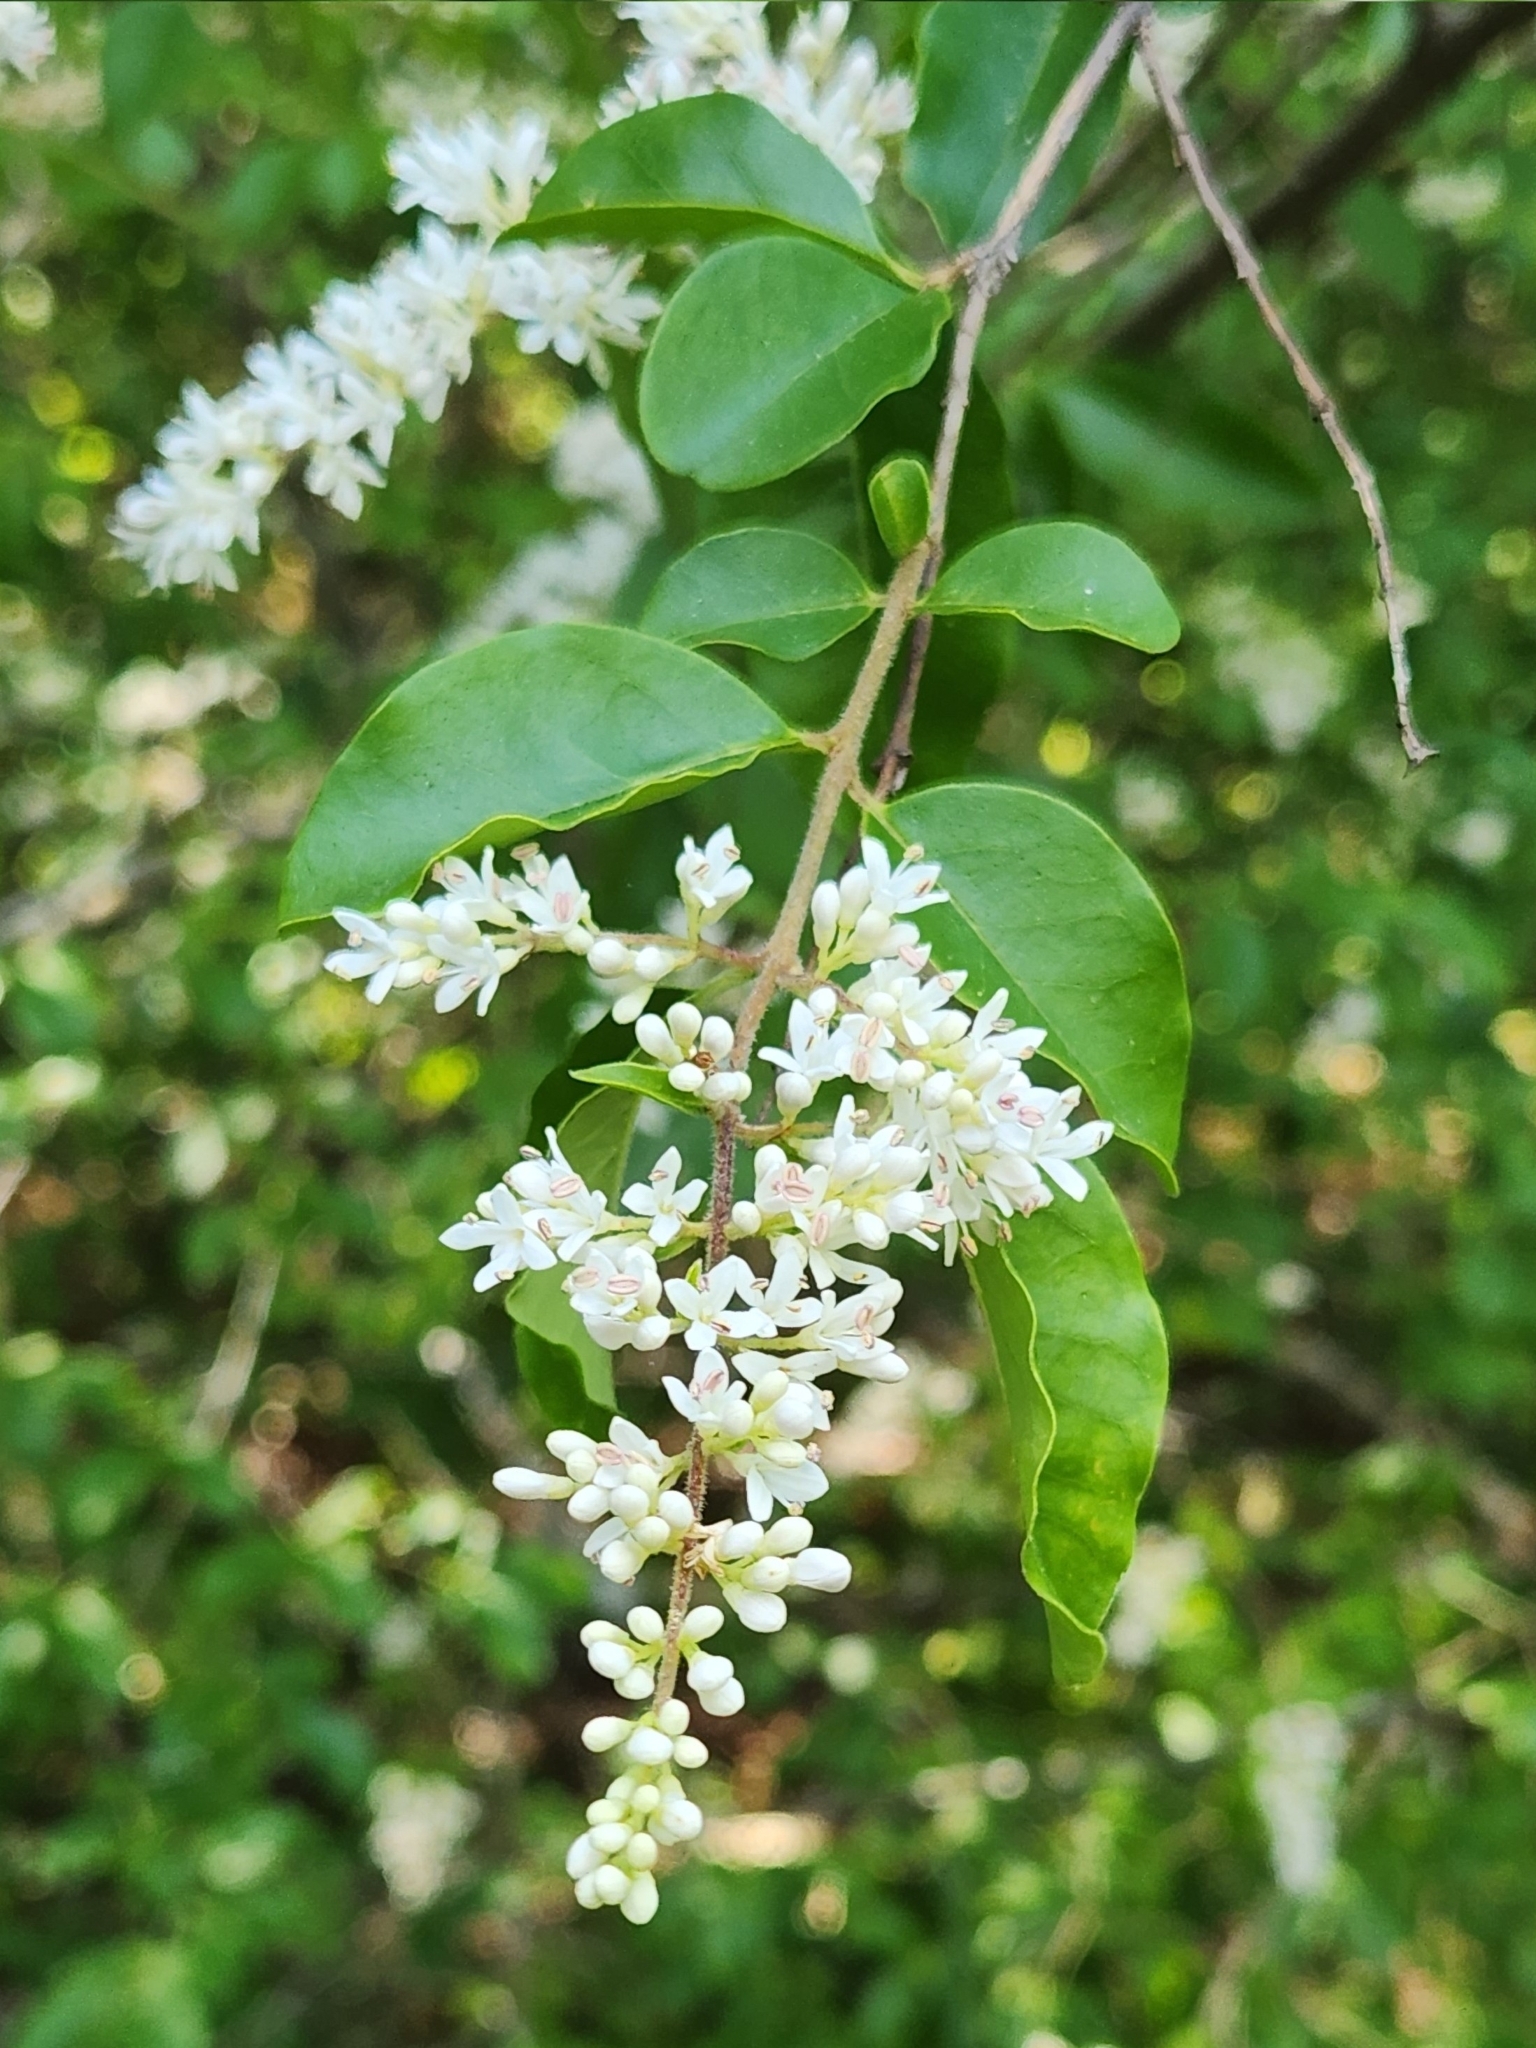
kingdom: Plantae
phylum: Tracheophyta
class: Magnoliopsida
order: Lamiales
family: Oleaceae
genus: Ligustrum
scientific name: Ligustrum sinense
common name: Chinese privet
